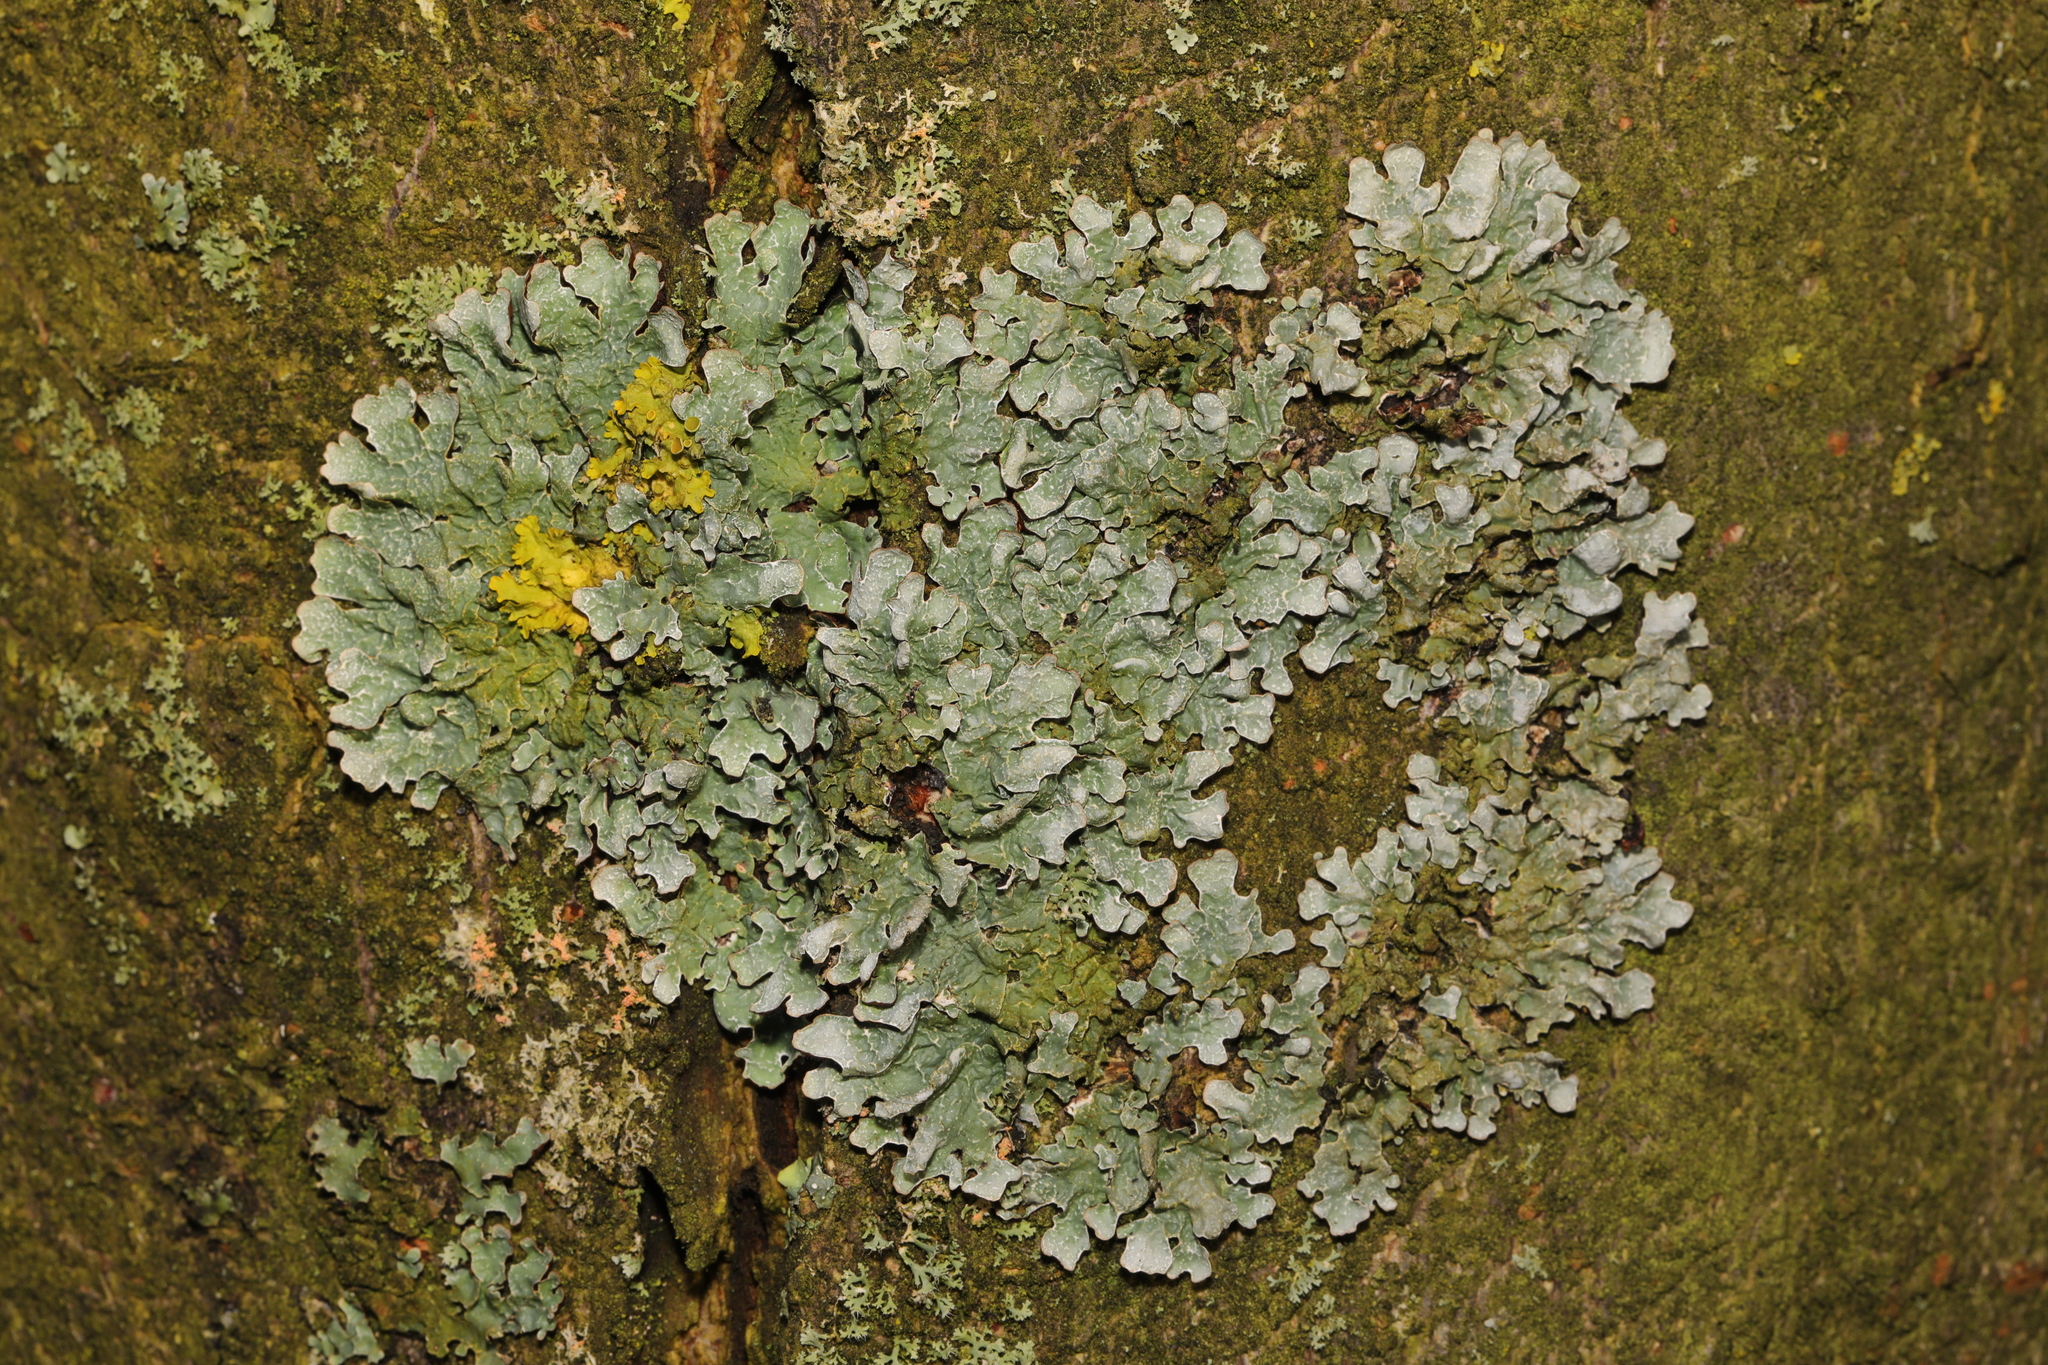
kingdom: Fungi
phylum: Ascomycota
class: Lecanoromycetes
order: Lecanorales
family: Parmeliaceae
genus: Parmelia
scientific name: Parmelia sulcata
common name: Netted shield lichen
